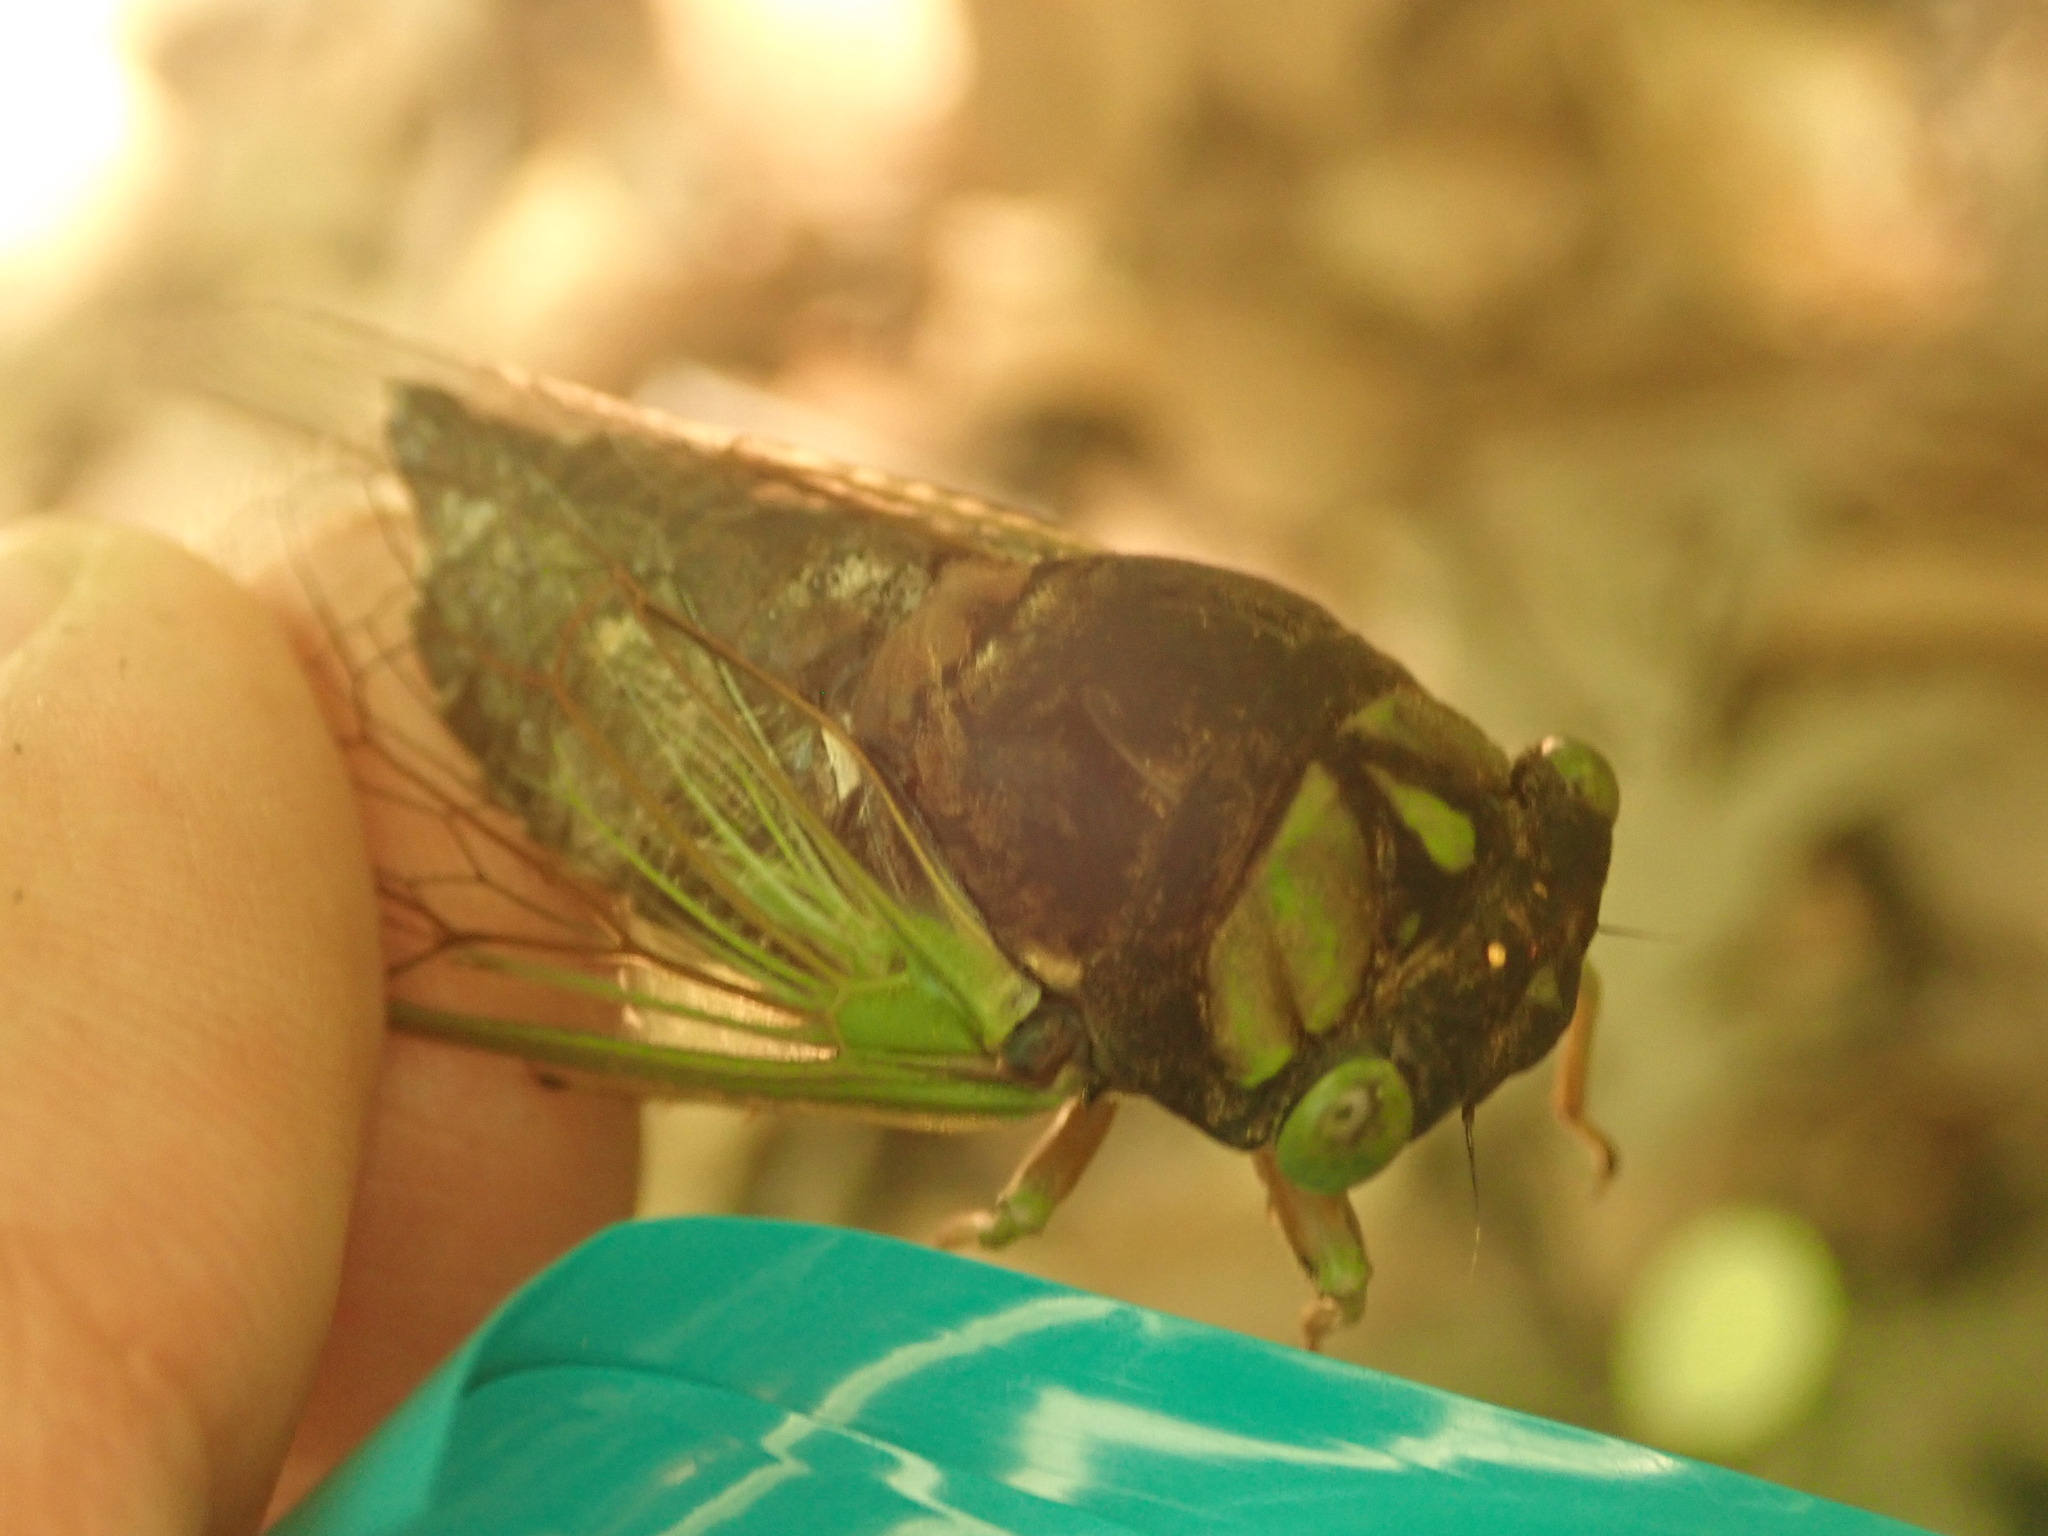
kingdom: Animalia
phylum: Arthropoda
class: Insecta
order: Hemiptera
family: Cicadidae
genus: Neotibicen
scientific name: Neotibicen tibicen
